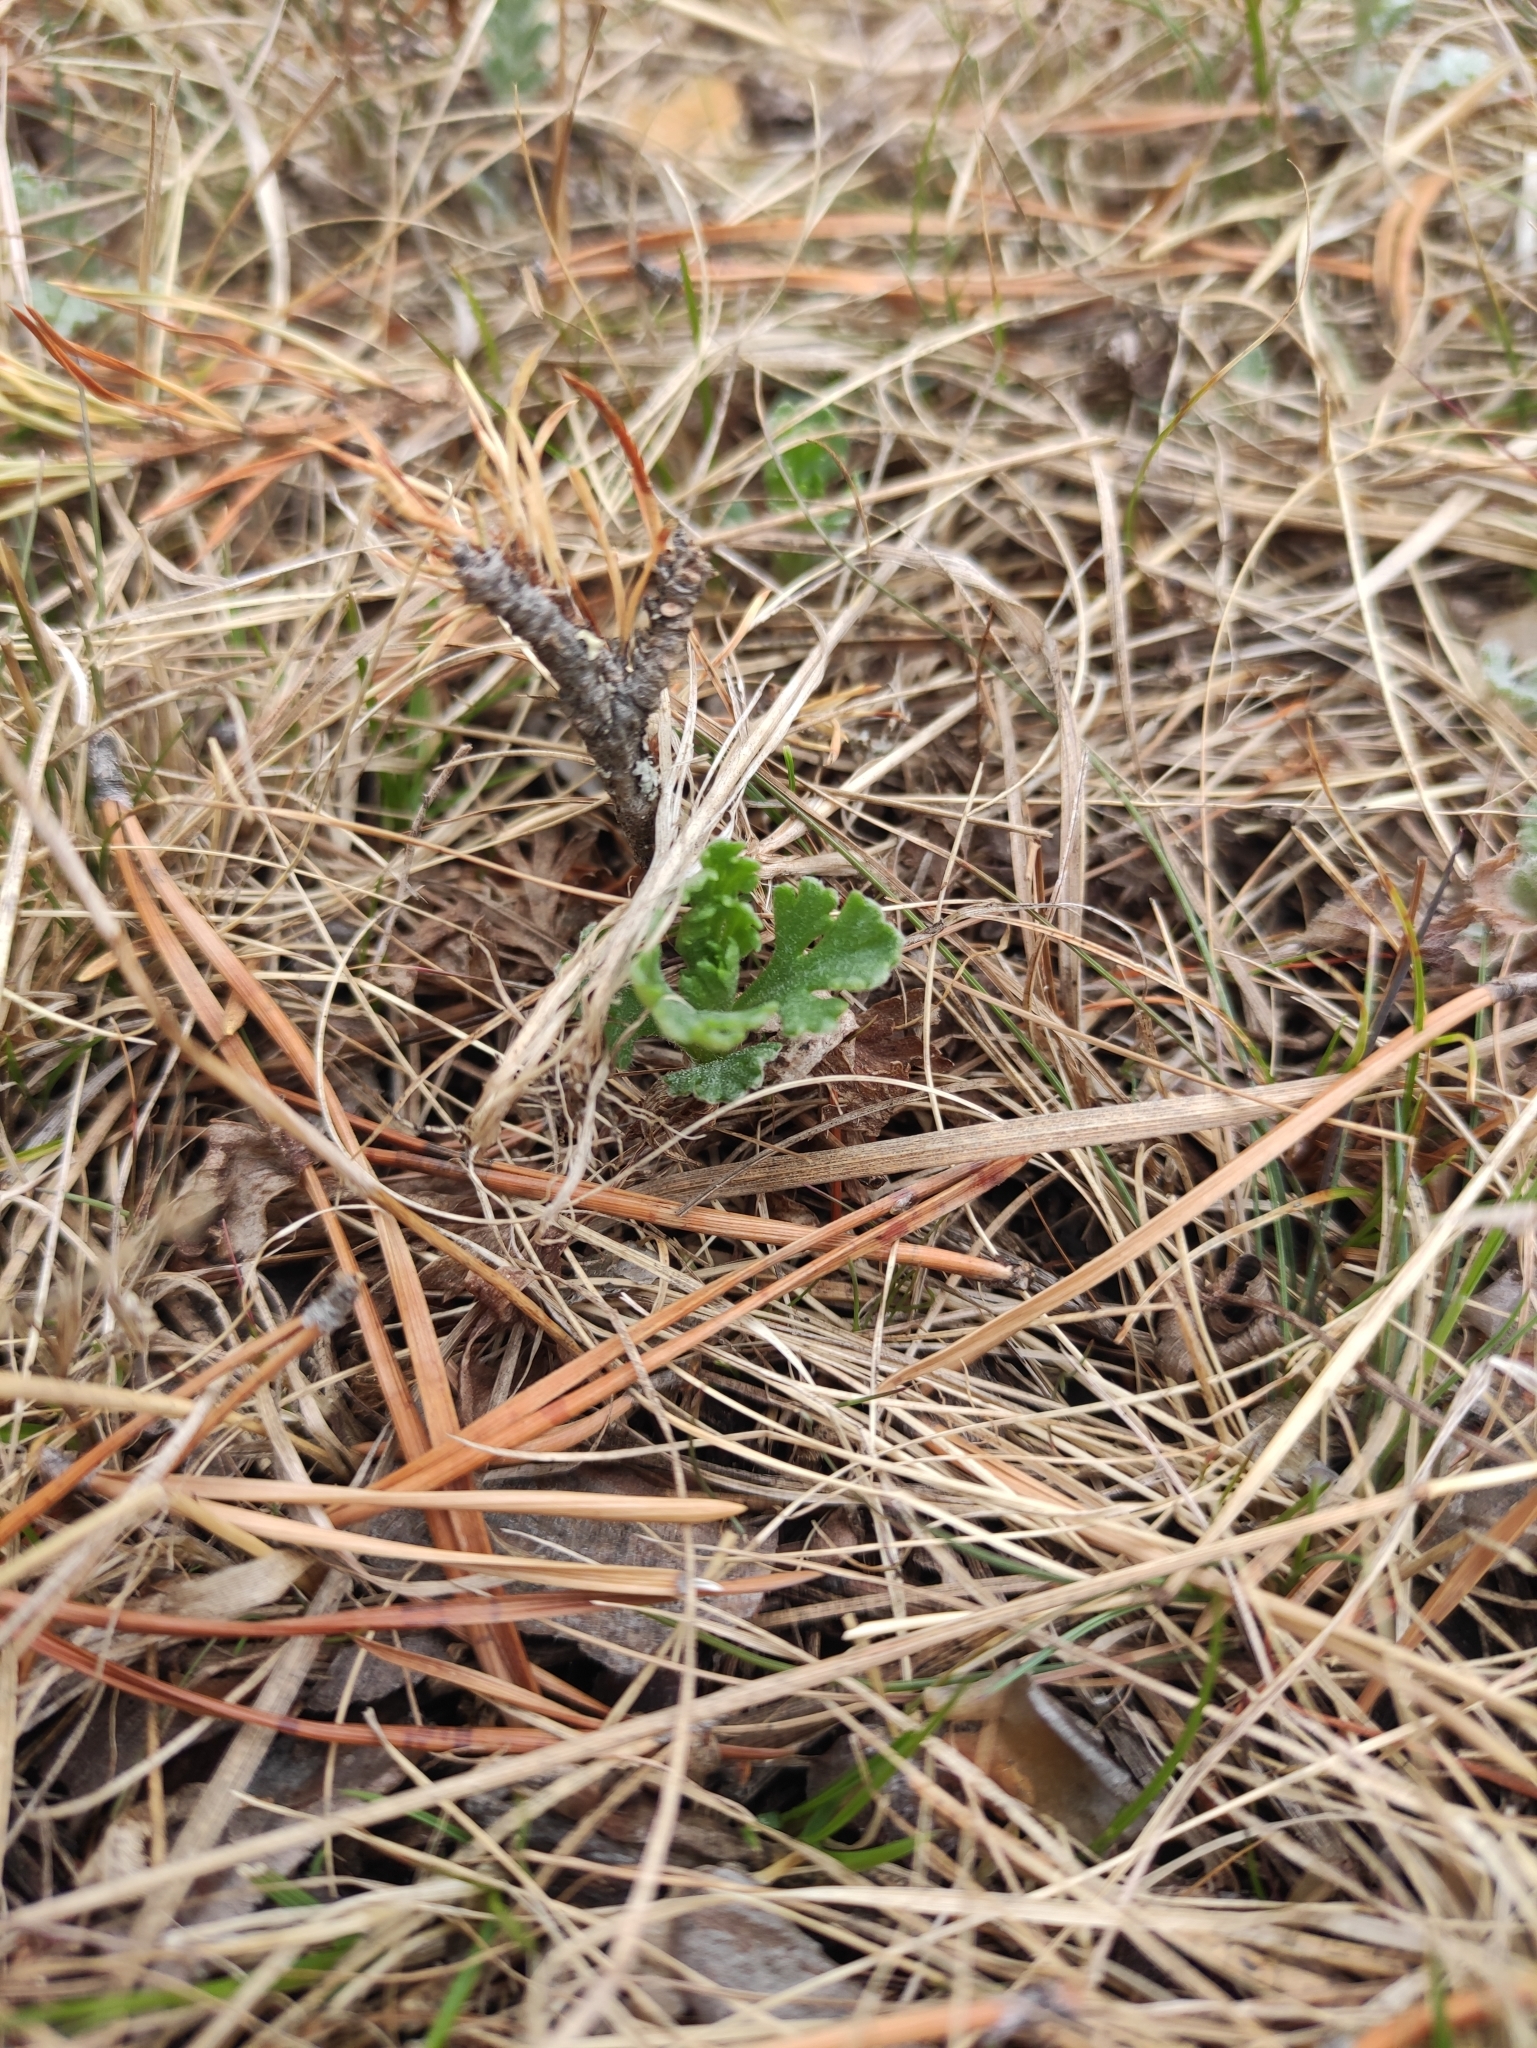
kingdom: Plantae
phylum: Tracheophyta
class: Magnoliopsida
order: Asterales
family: Asteraceae
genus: Chrysanthemum
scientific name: Chrysanthemum zawadzkii
